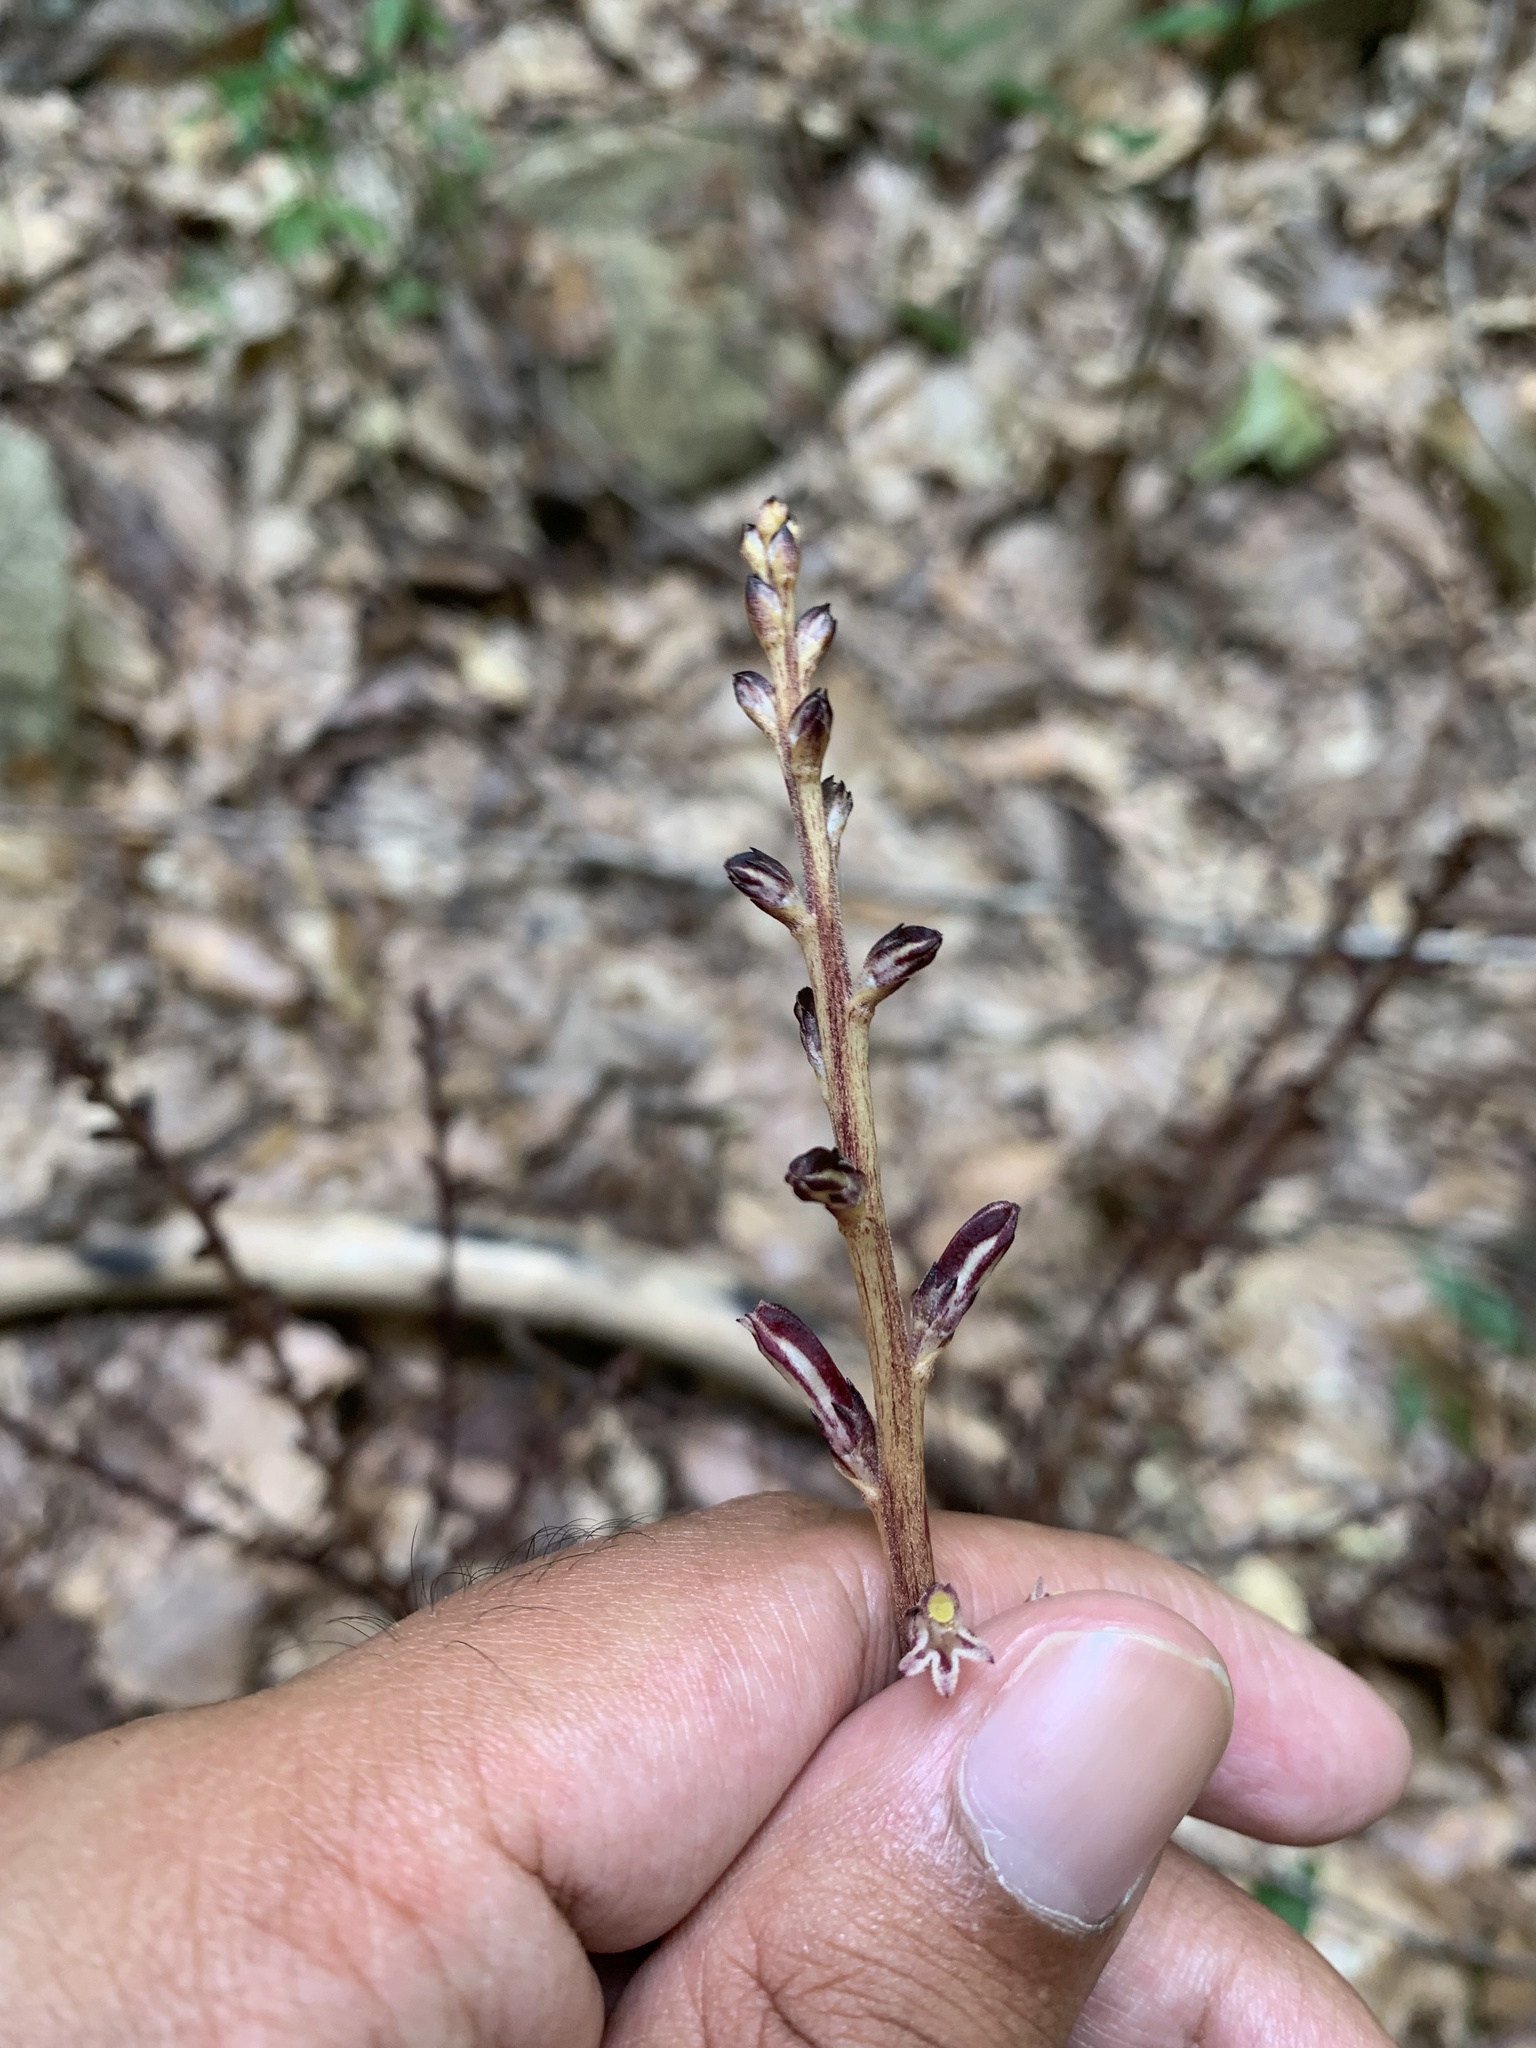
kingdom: Plantae
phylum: Tracheophyta
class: Magnoliopsida
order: Lamiales
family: Orobanchaceae
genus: Epifagus
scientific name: Epifagus virginiana
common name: Beechdrops
